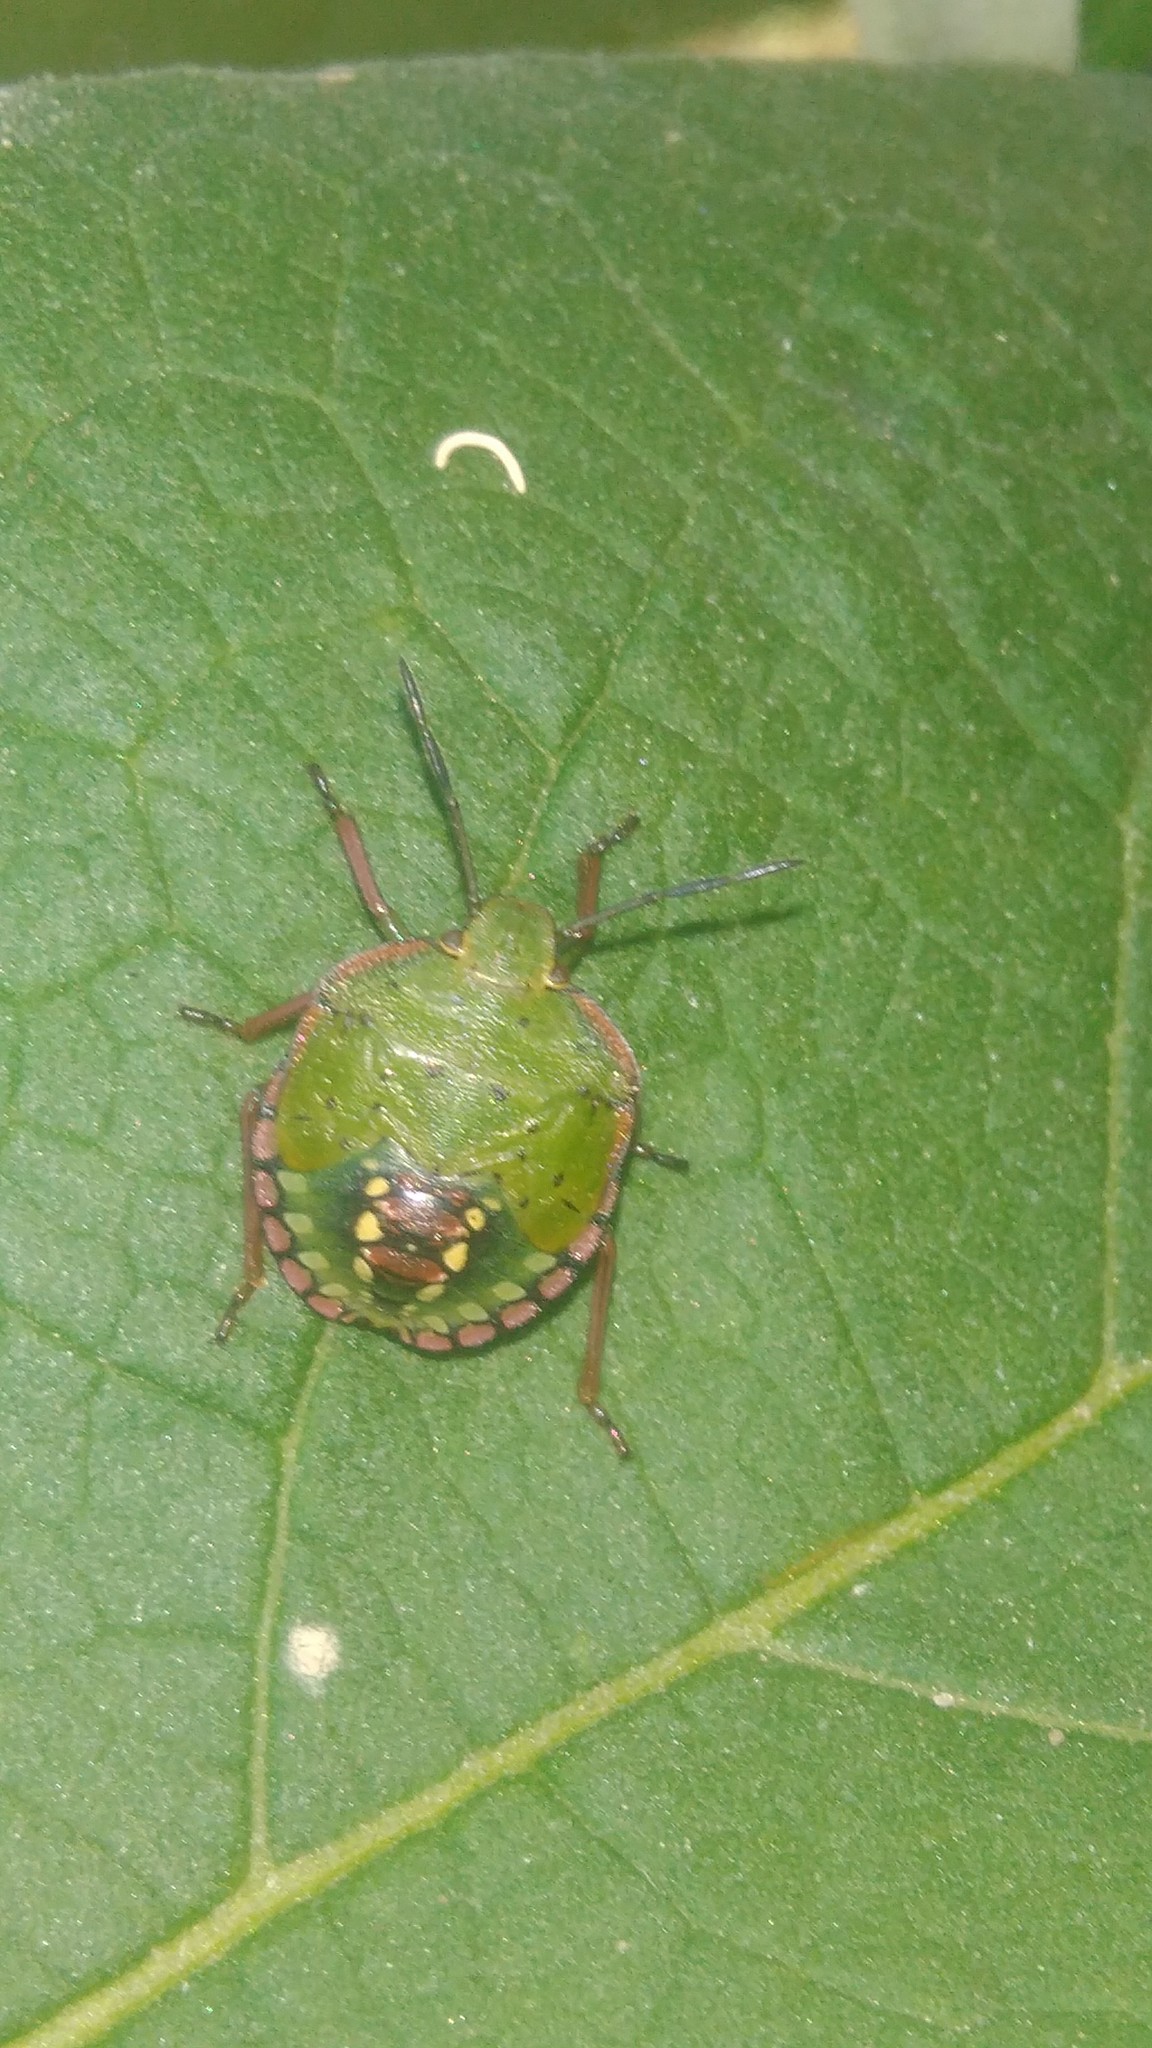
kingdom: Animalia
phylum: Arthropoda
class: Insecta
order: Hemiptera
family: Pentatomidae
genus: Nezara
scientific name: Nezara viridula
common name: Southern green stink bug
